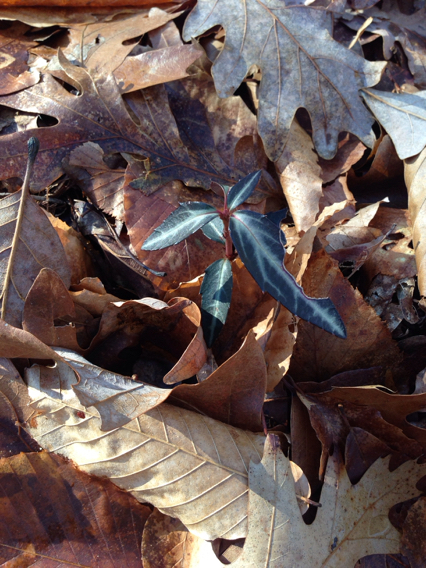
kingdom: Plantae
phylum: Tracheophyta
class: Magnoliopsida
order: Ericales
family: Ericaceae
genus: Chimaphila
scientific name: Chimaphila maculata
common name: Spotted pipsissewa
